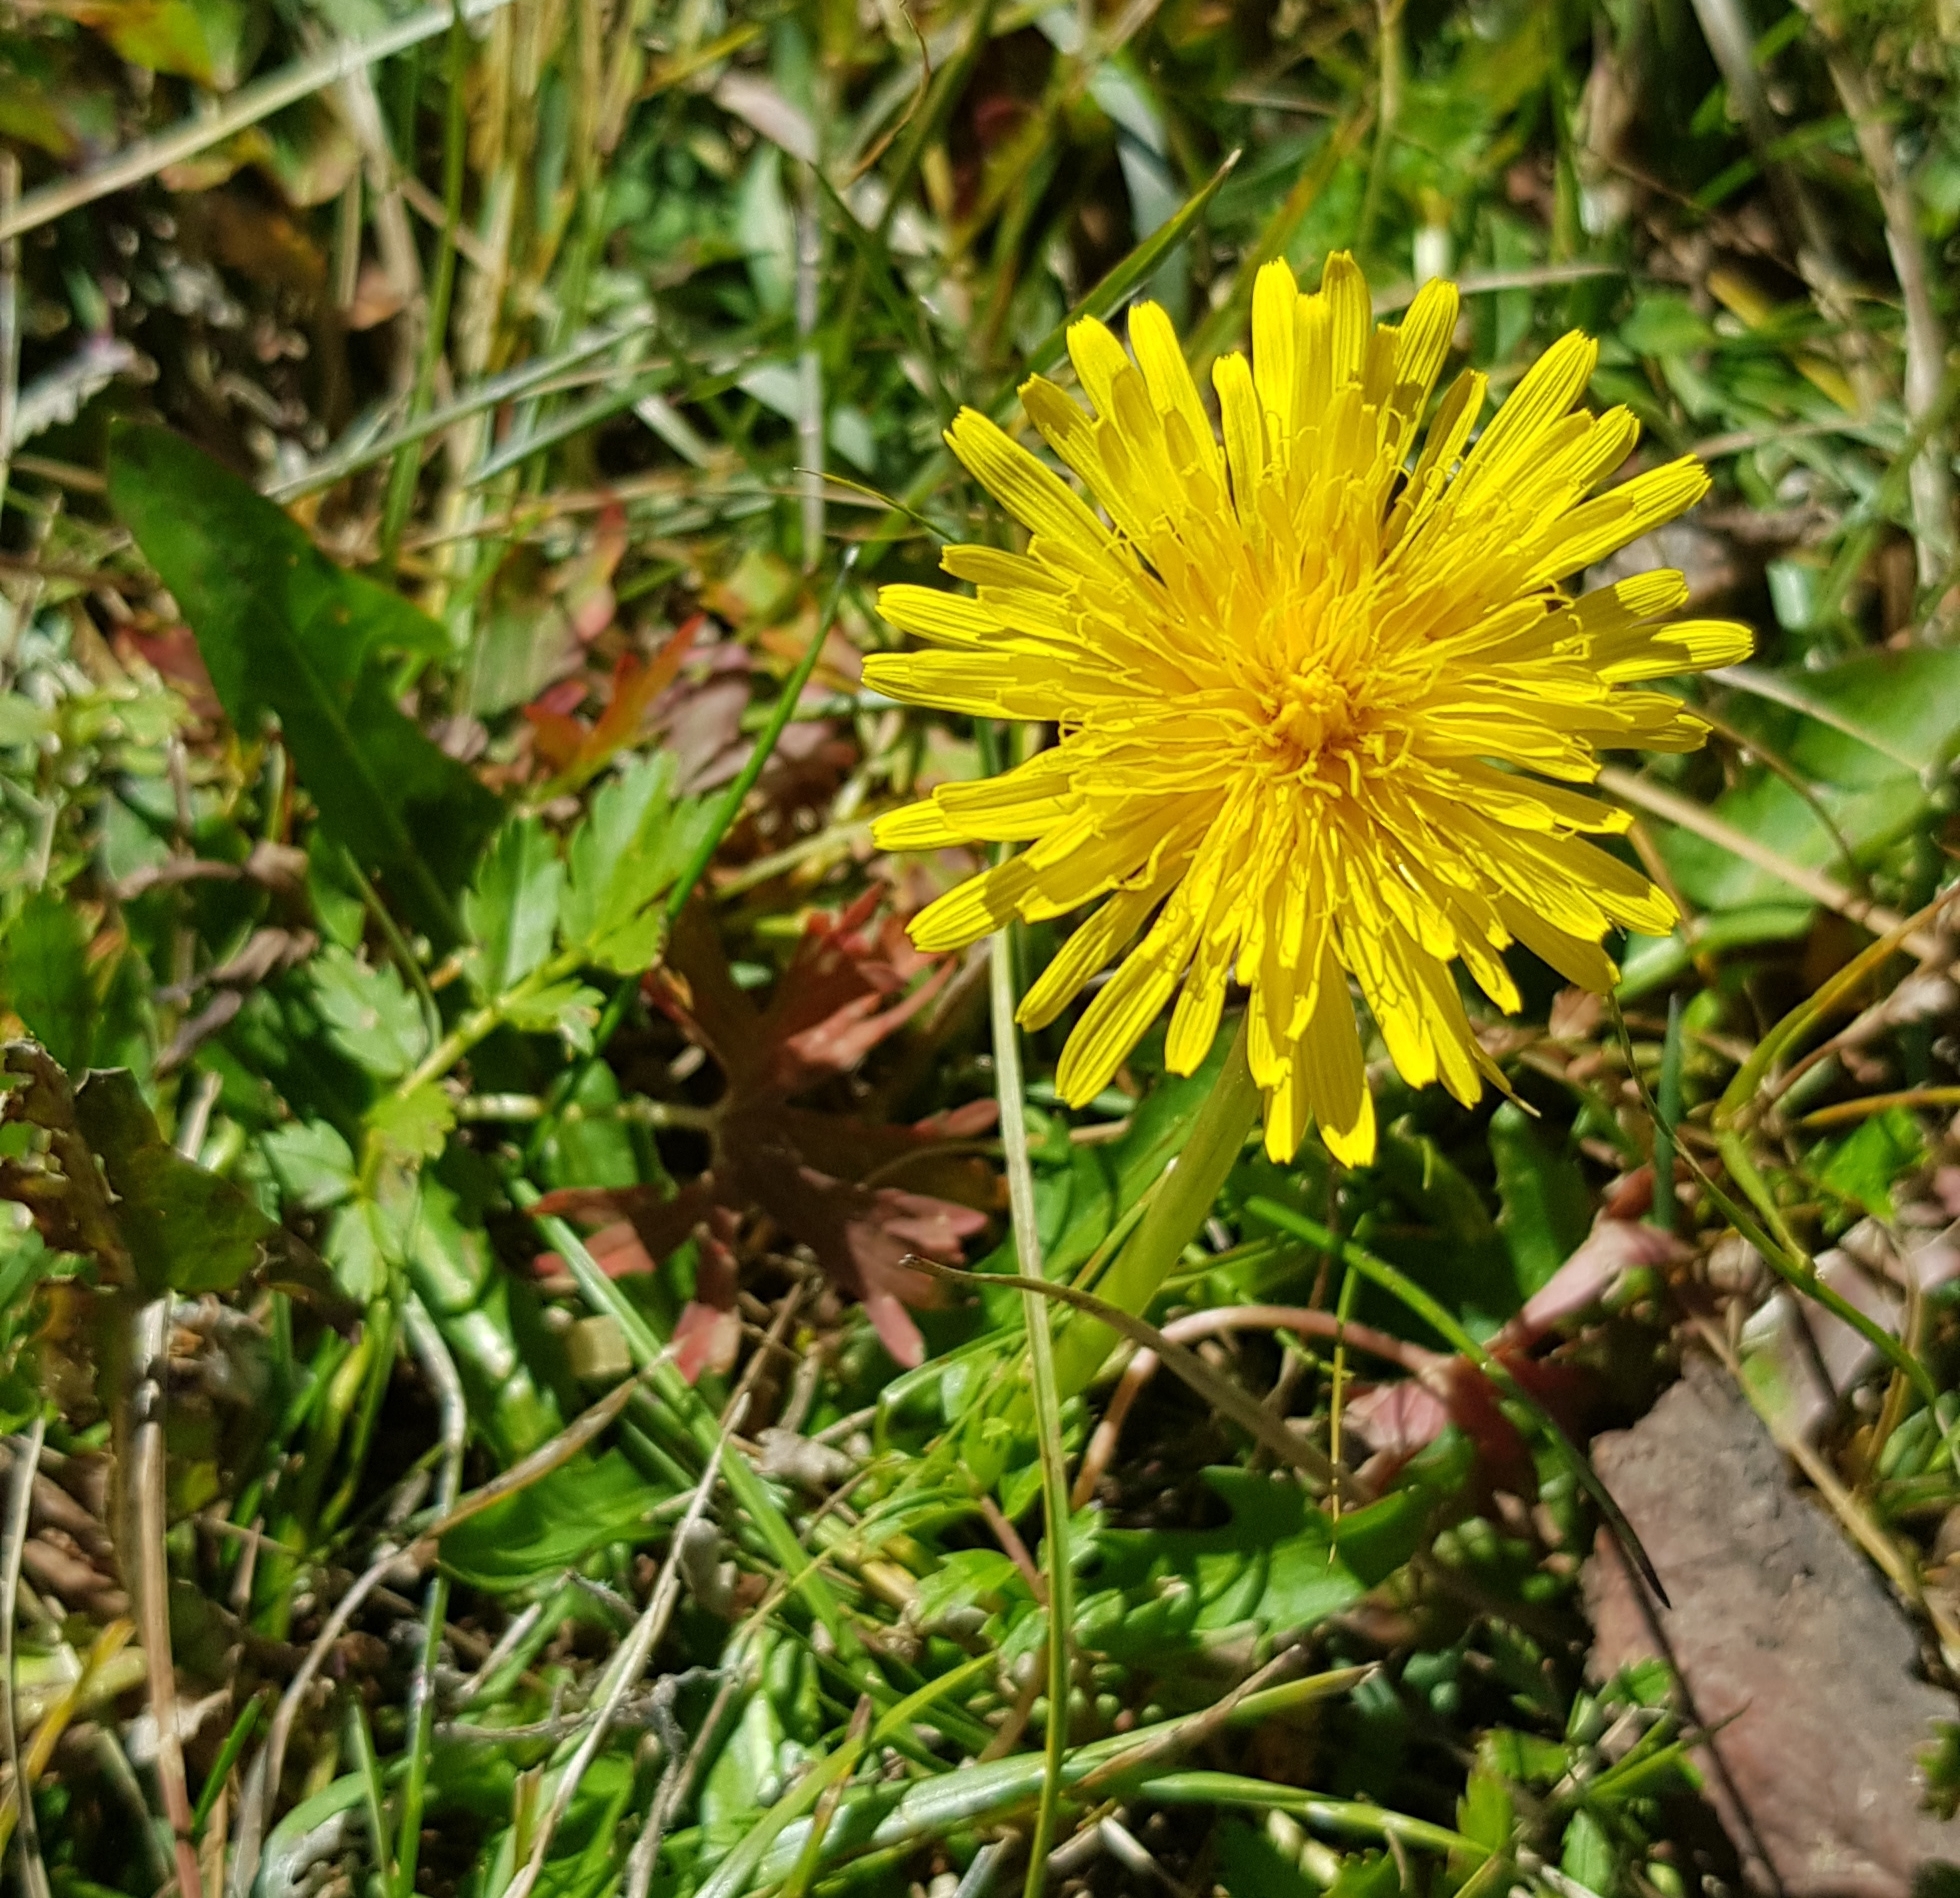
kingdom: Plantae
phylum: Tracheophyta
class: Magnoliopsida
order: Asterales
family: Asteraceae
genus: Taraxacum
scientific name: Taraxacum officinale
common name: Common dandelion
